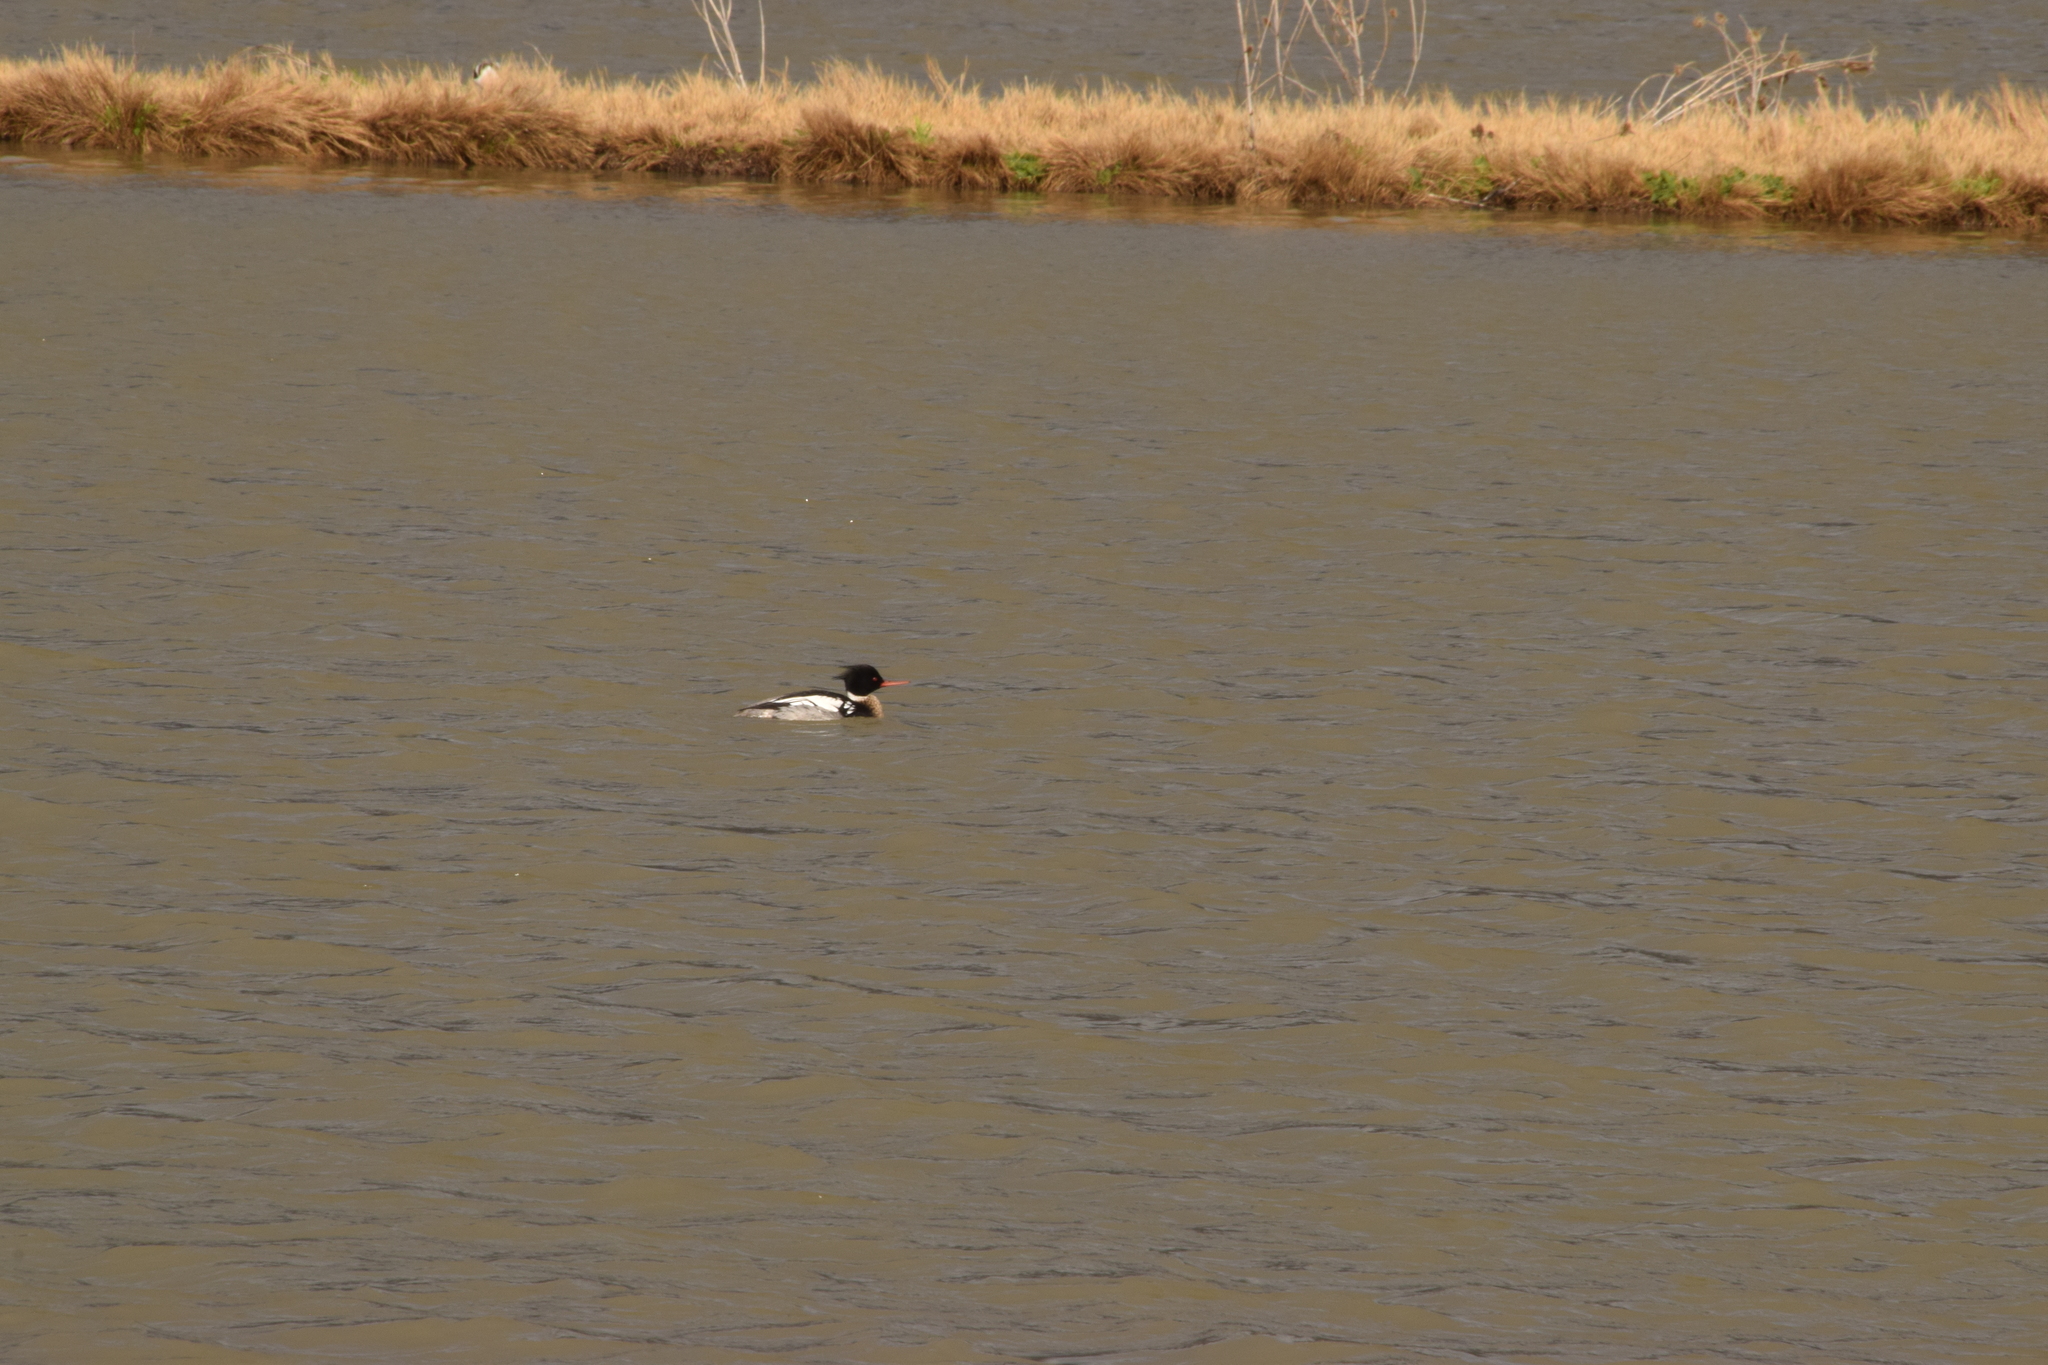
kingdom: Animalia
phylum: Chordata
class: Aves
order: Anseriformes
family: Anatidae
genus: Mergus
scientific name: Mergus serrator
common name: Red-breasted merganser
